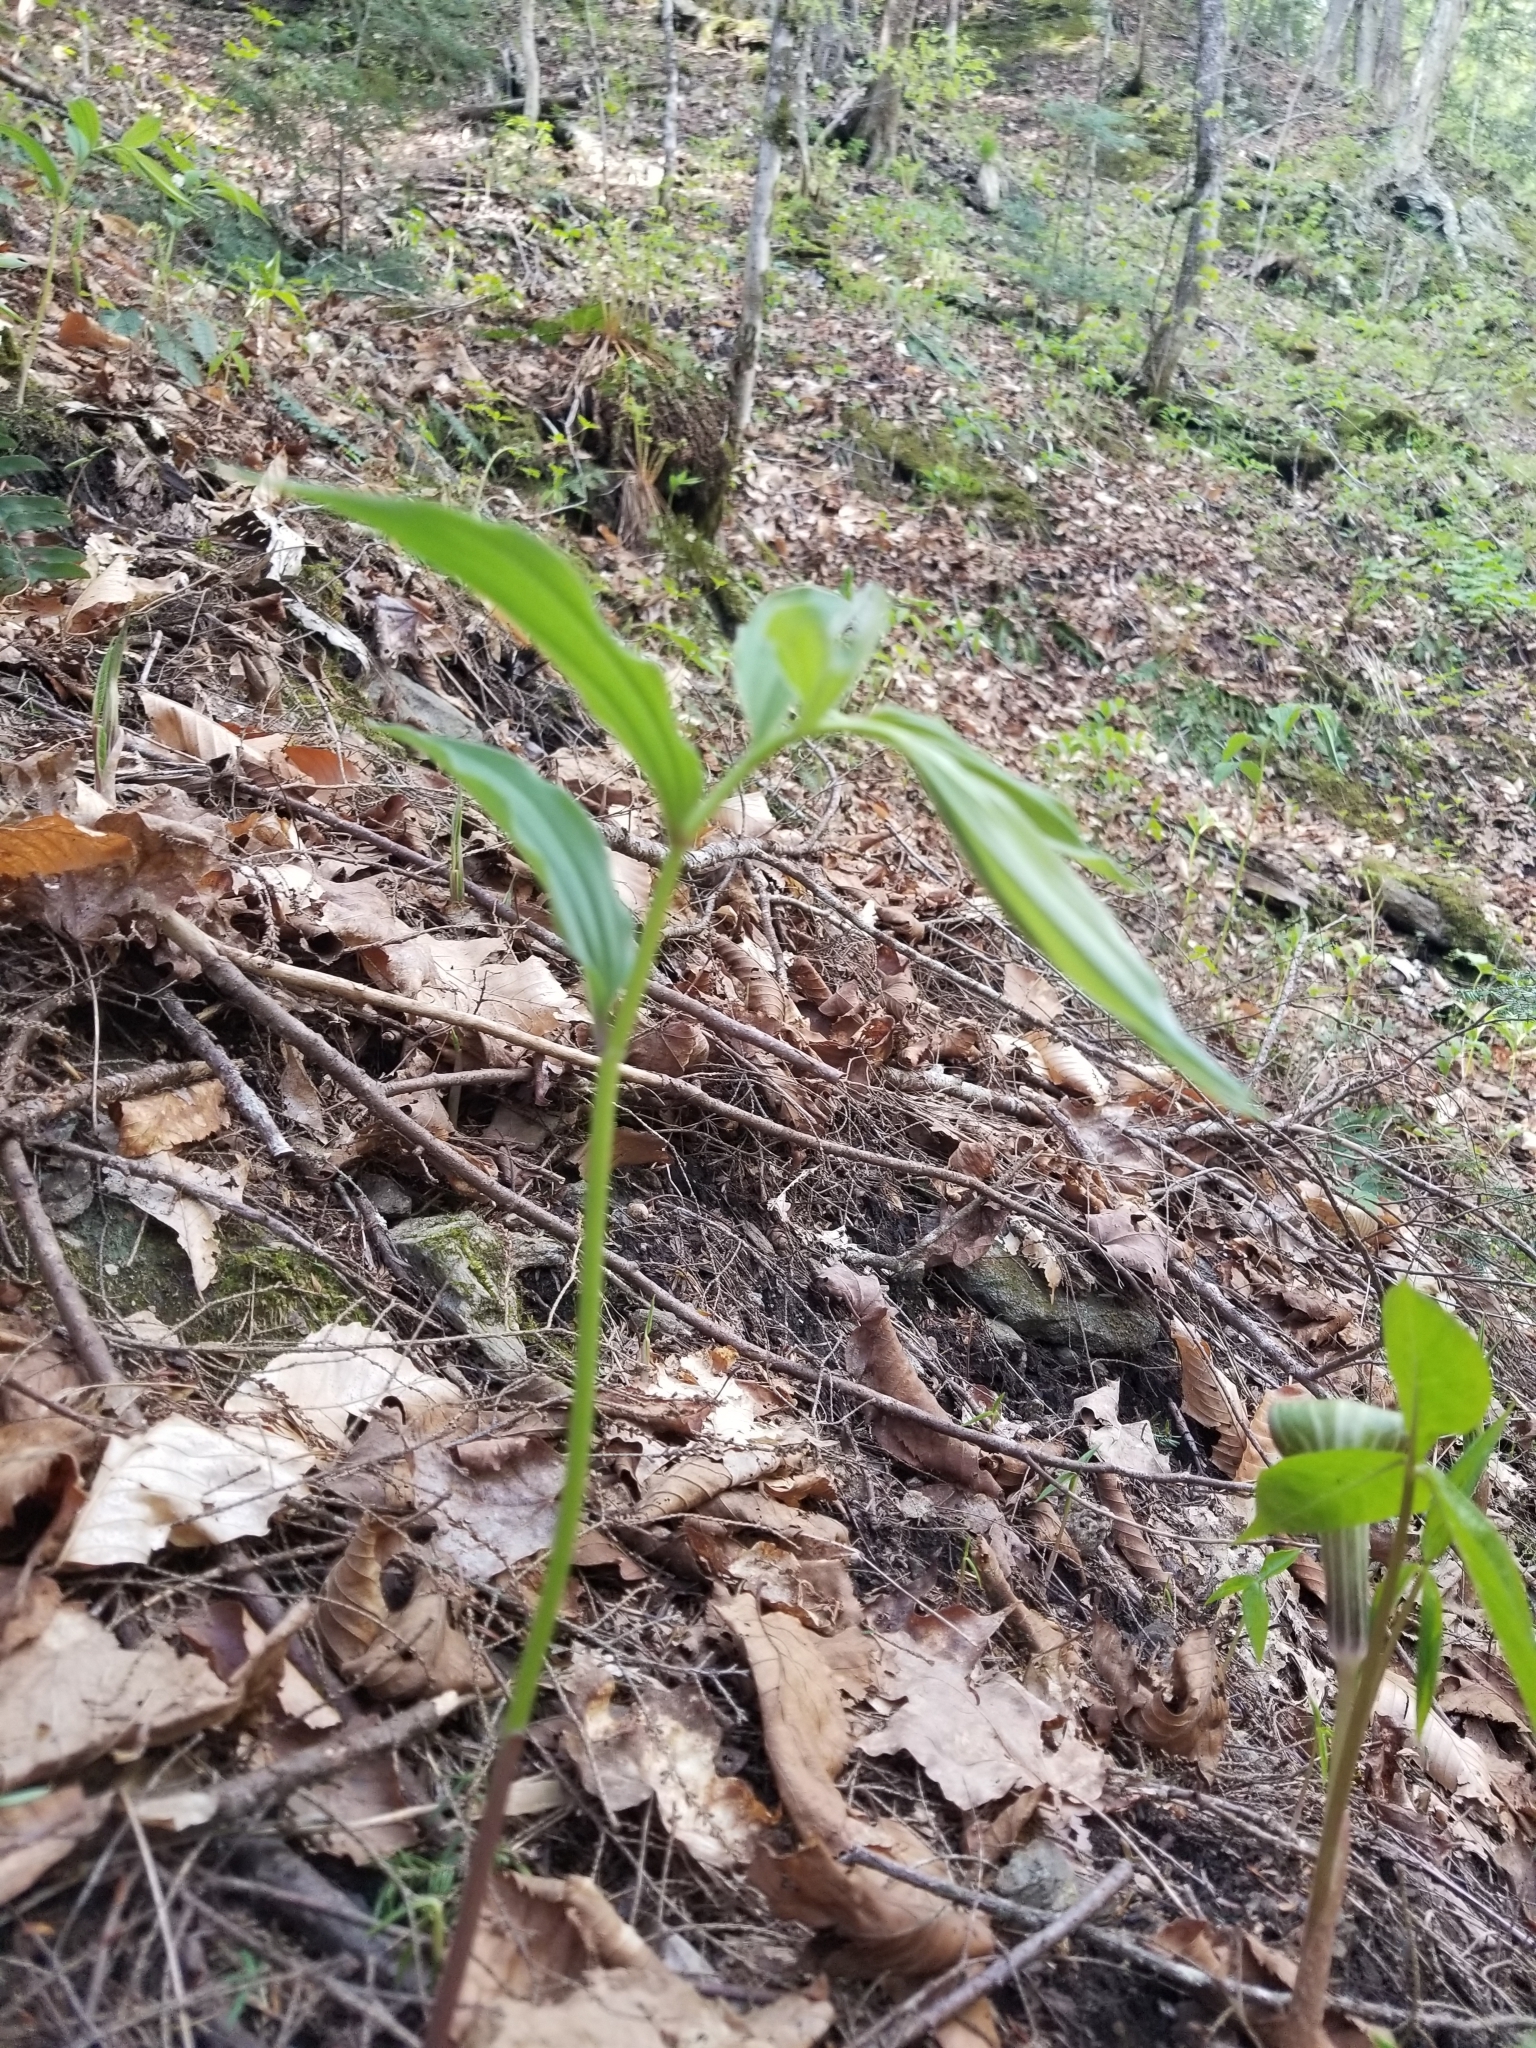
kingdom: Plantae
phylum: Tracheophyta
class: Liliopsida
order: Asparagales
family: Asparagaceae
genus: Maianthemum
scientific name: Maianthemum racemosum
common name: False spikenard
